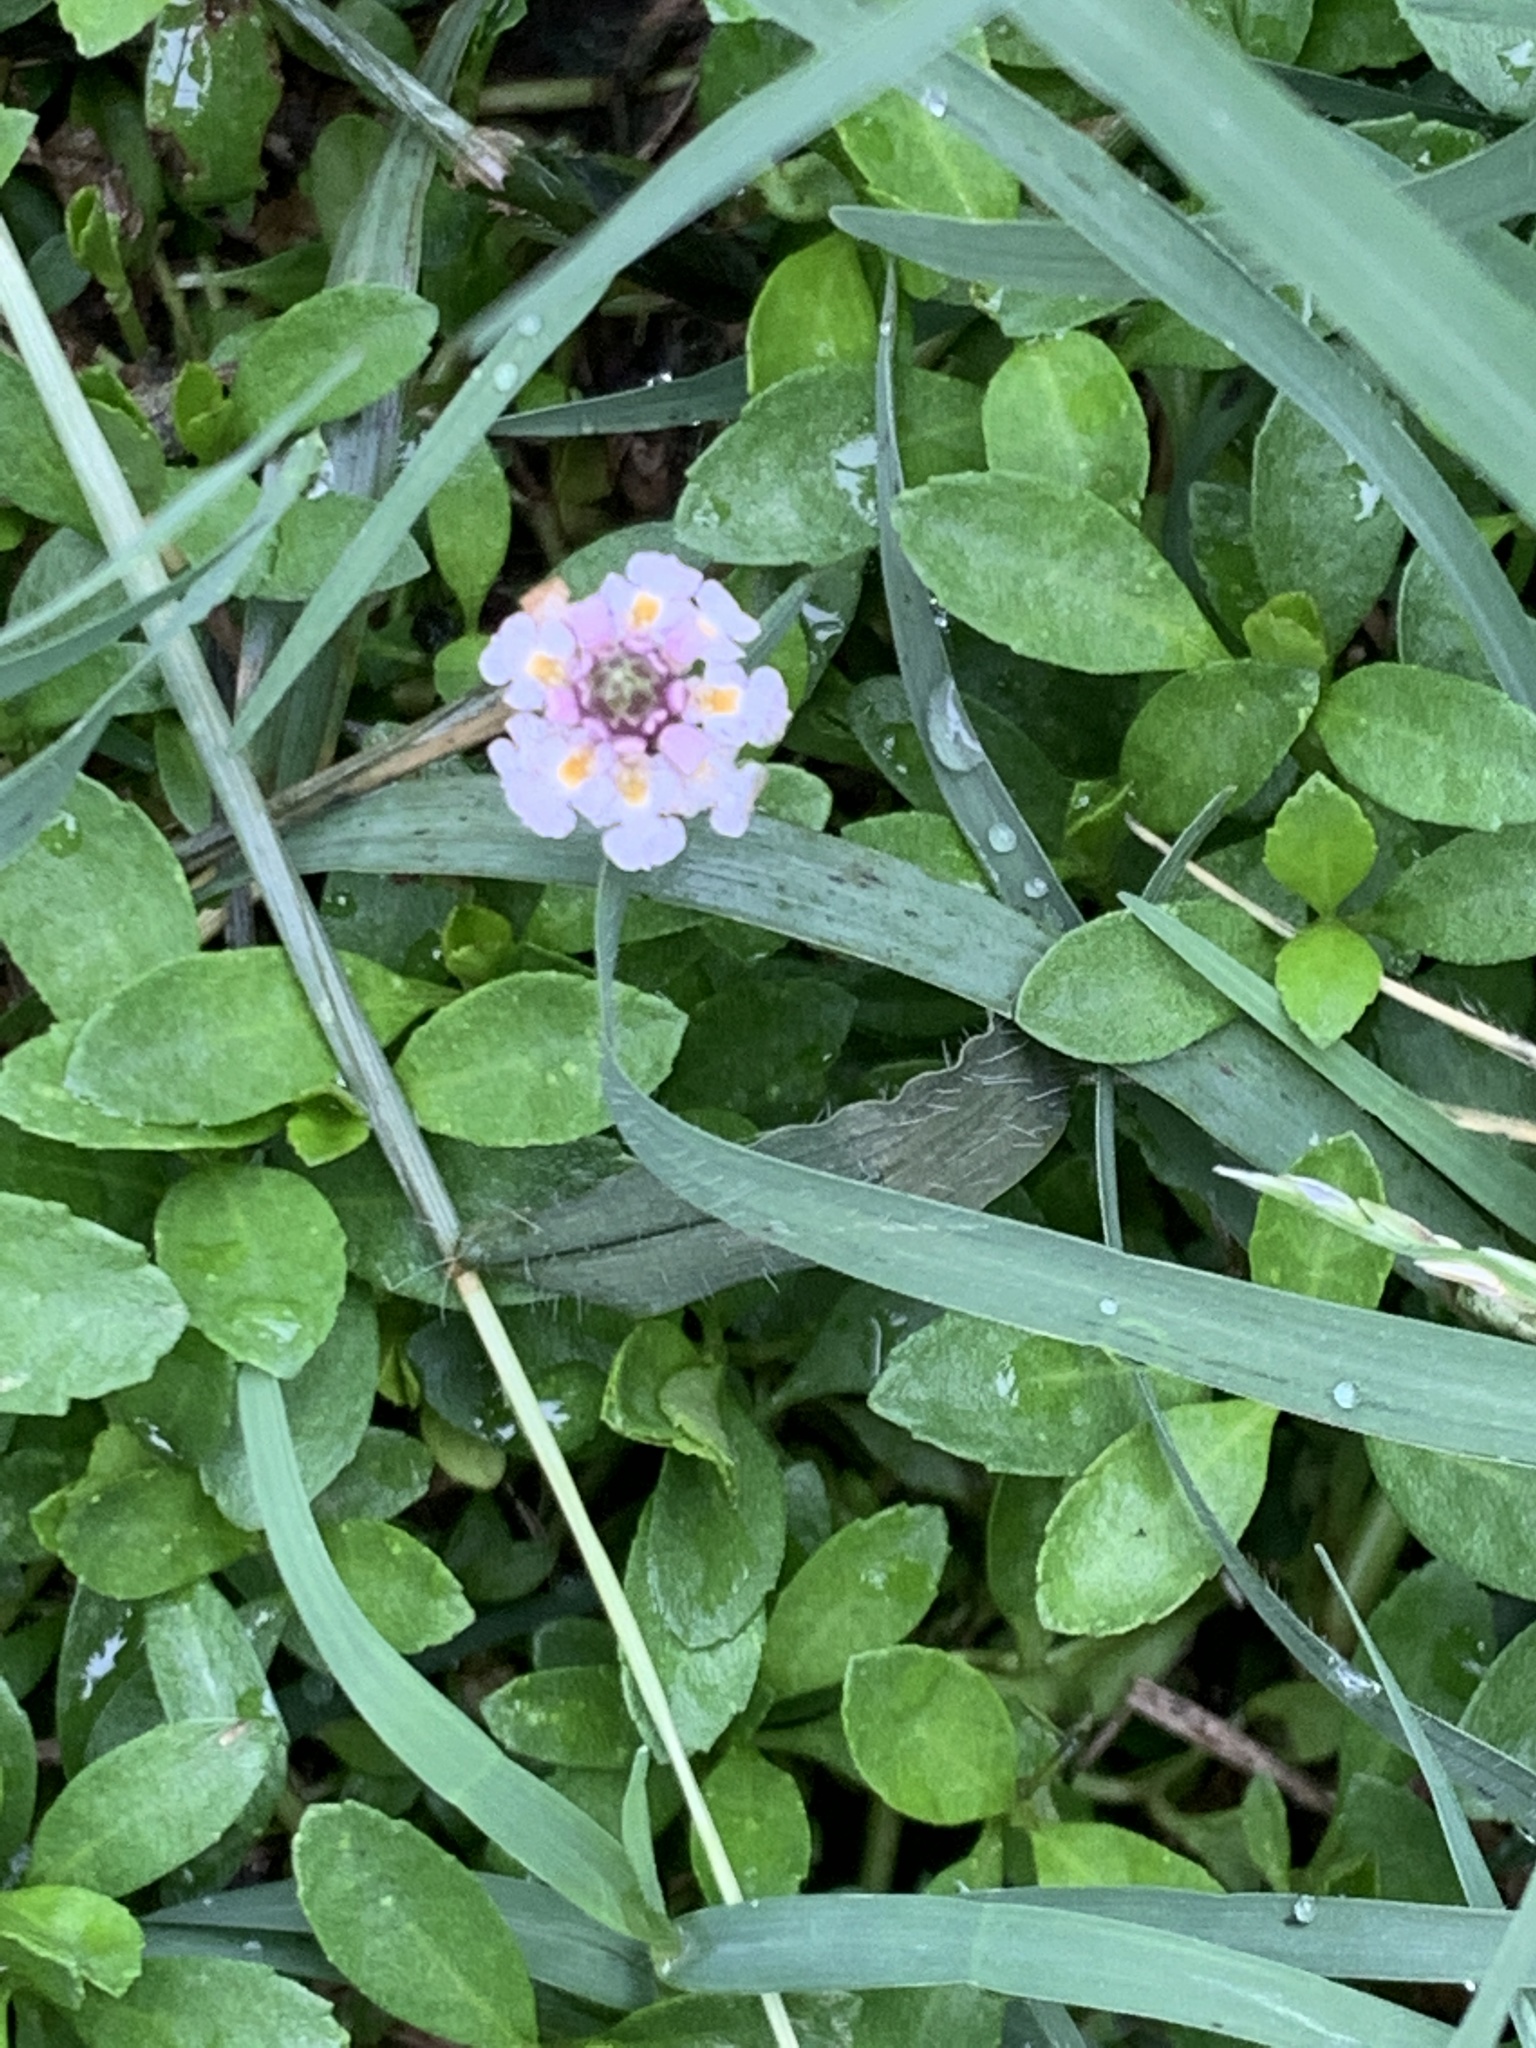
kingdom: Plantae
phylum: Tracheophyta
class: Magnoliopsida
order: Lamiales
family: Verbenaceae
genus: Phyla
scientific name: Phyla nodiflora
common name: Frogfruit
